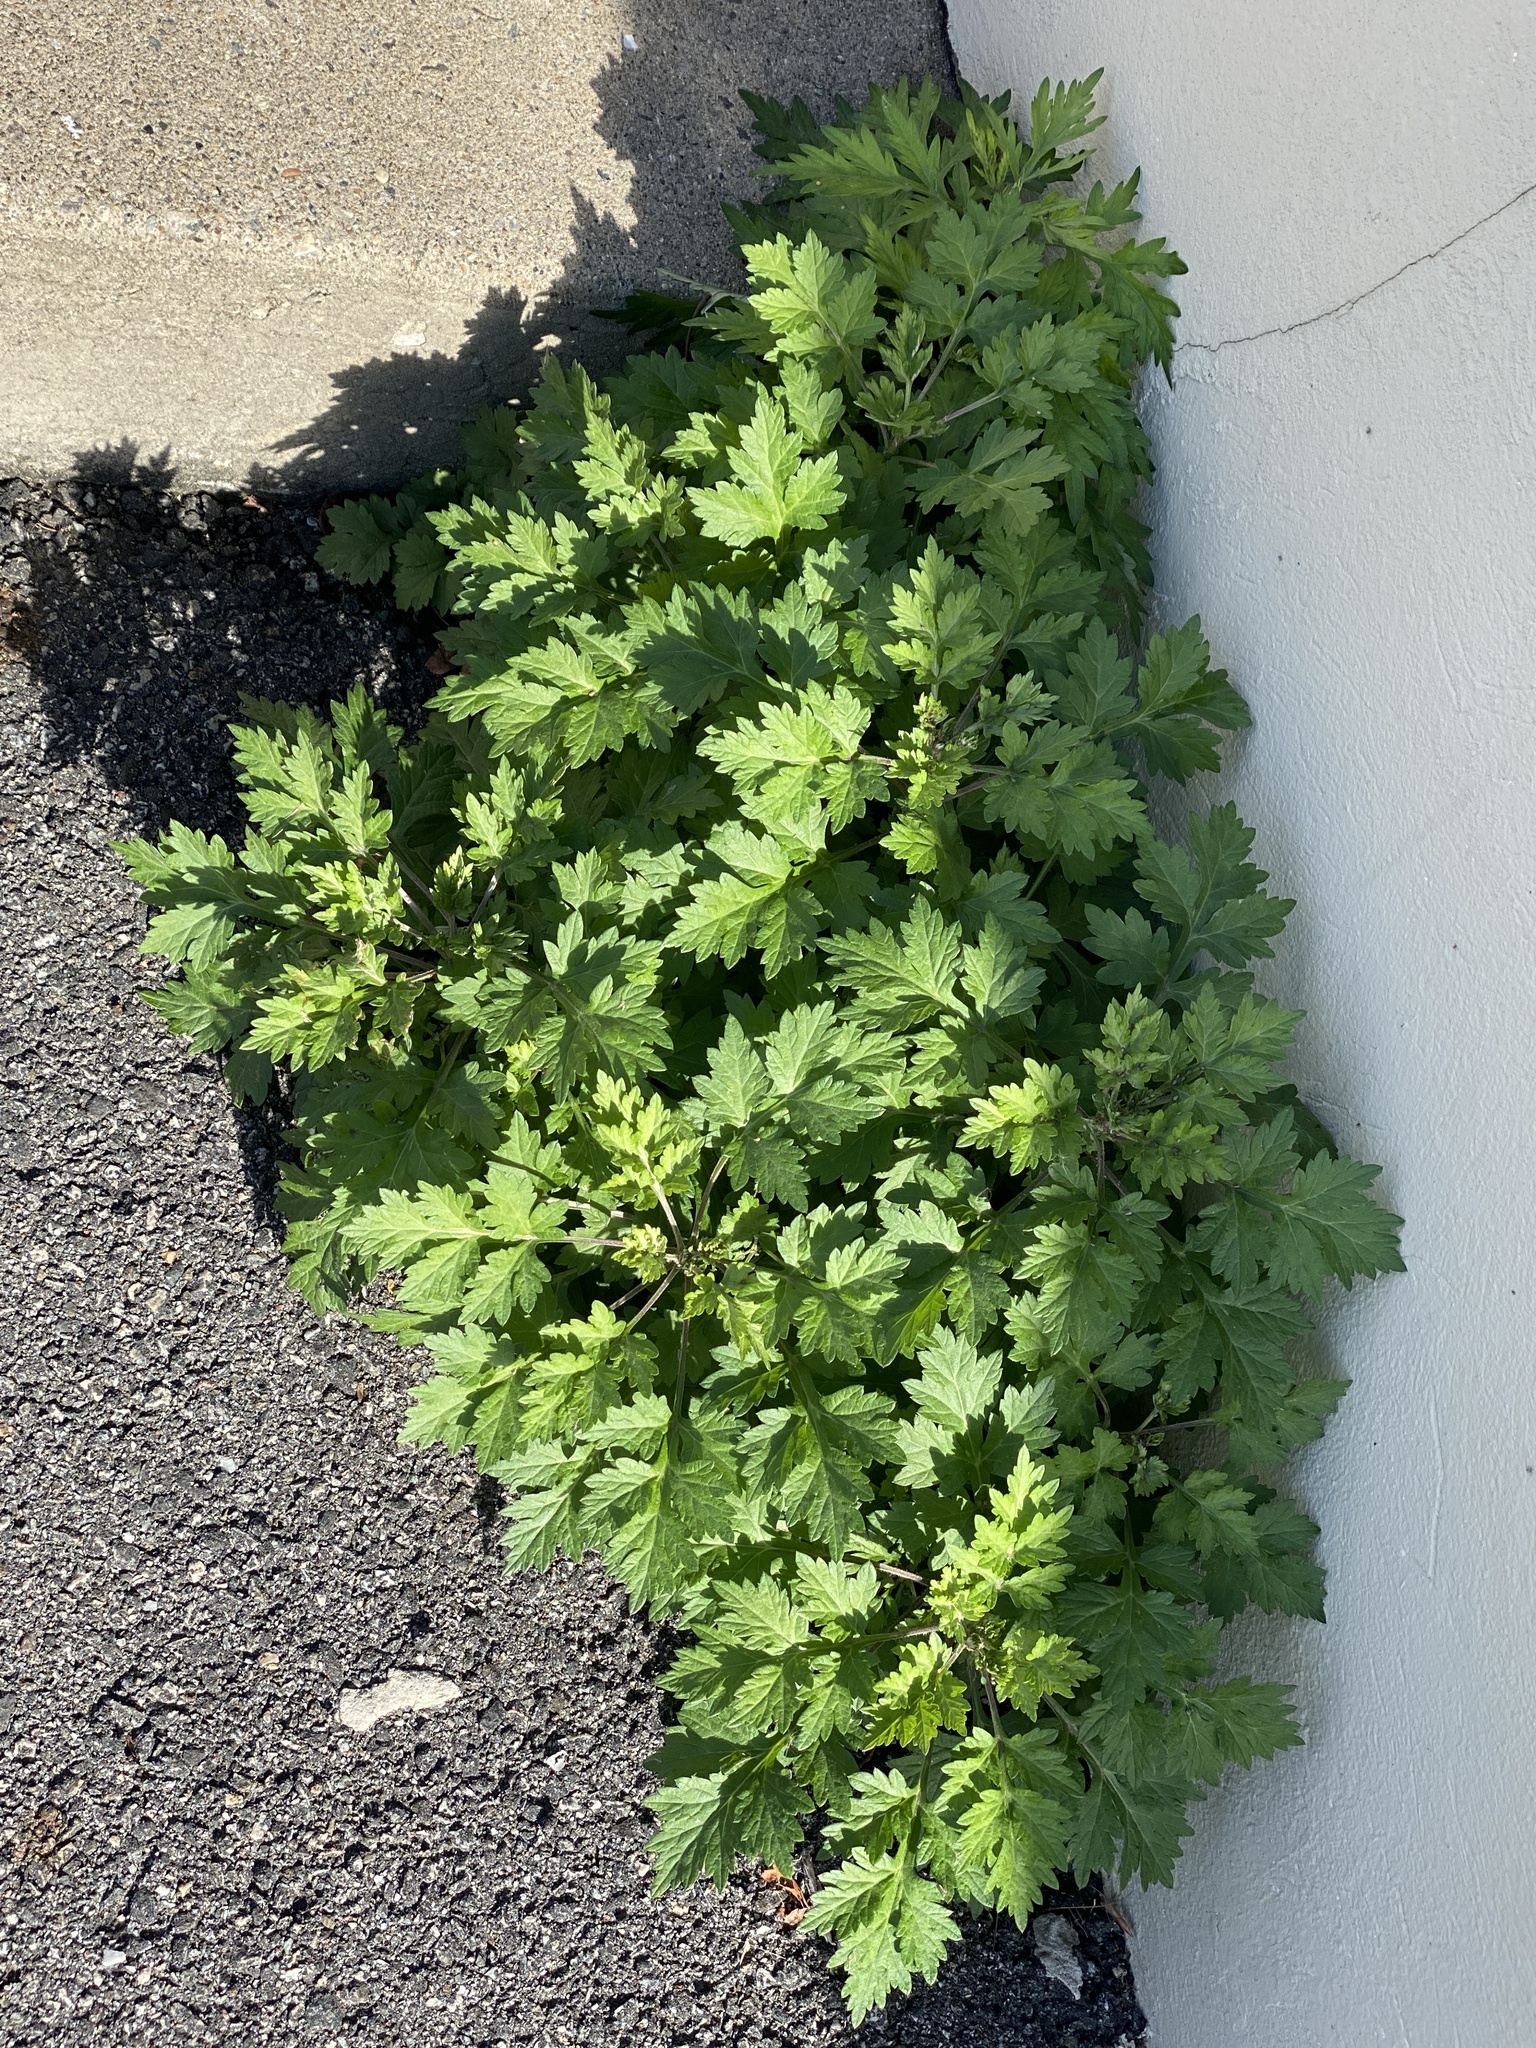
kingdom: Plantae
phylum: Tracheophyta
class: Magnoliopsida
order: Asterales
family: Asteraceae
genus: Artemisia
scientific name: Artemisia vulgaris
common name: Mugwort
